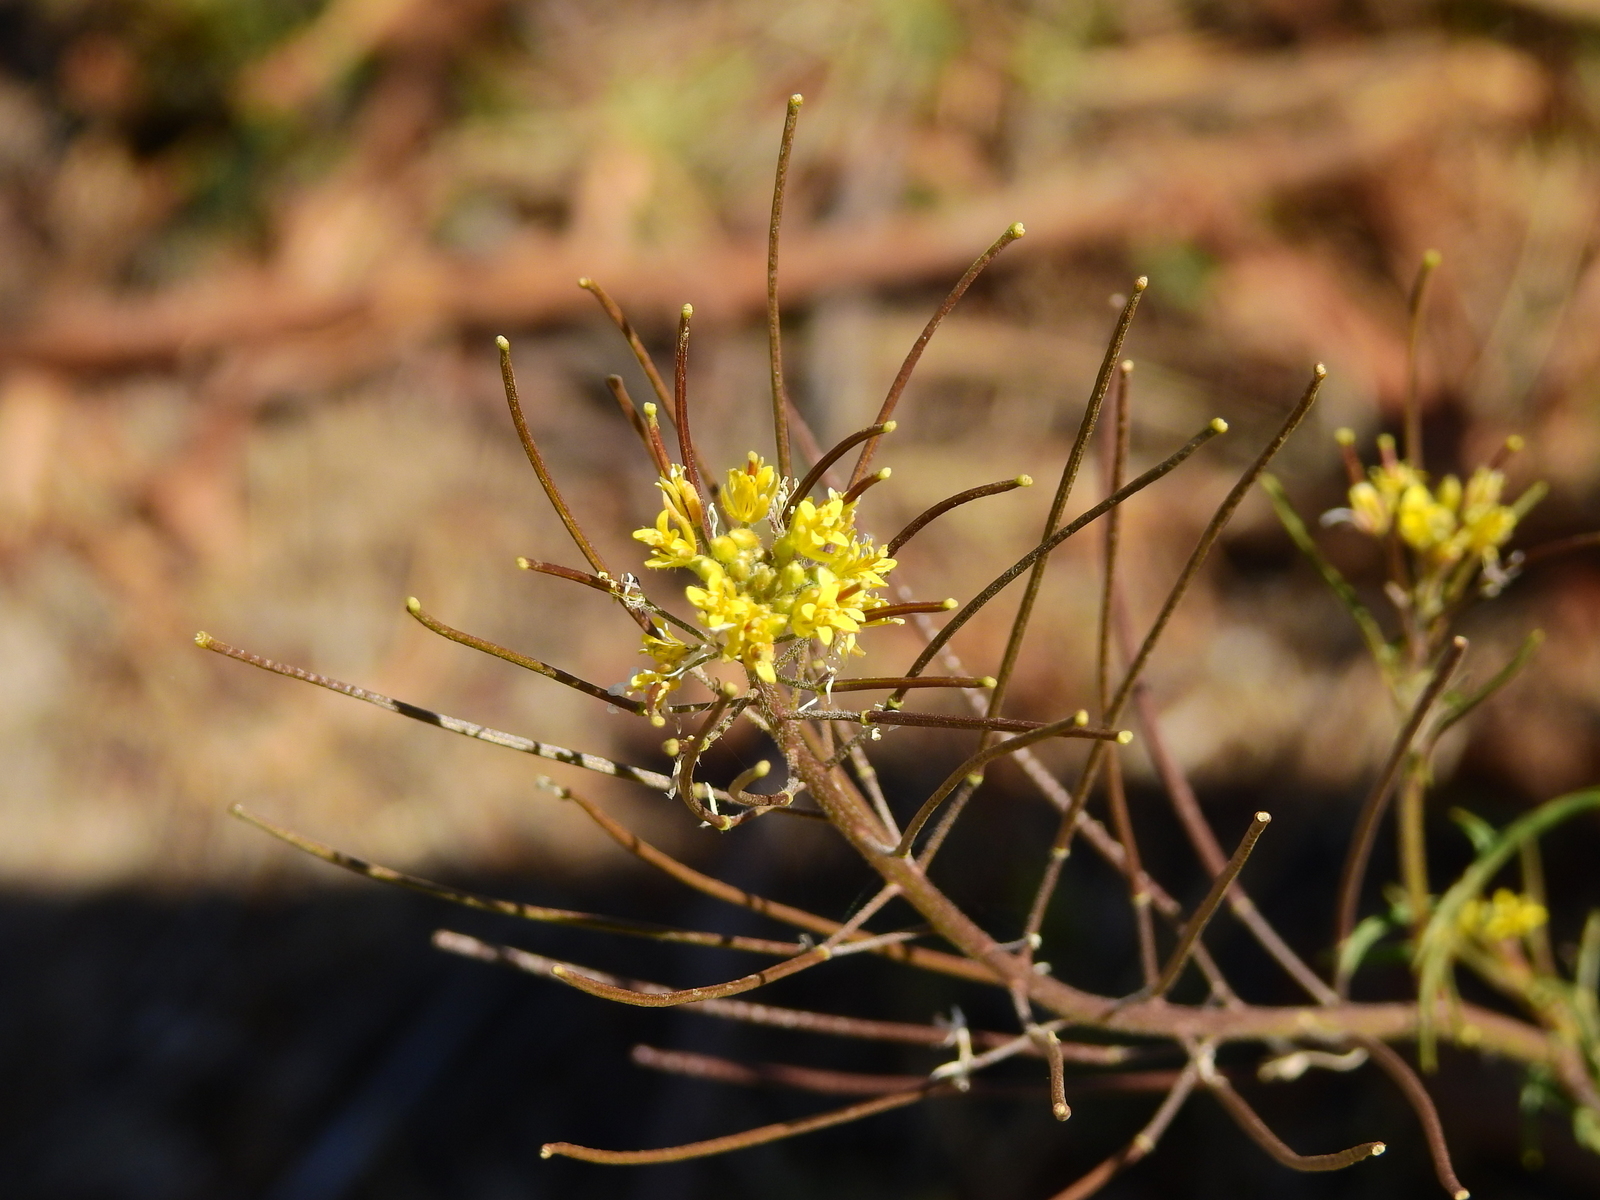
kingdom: Plantae
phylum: Tracheophyta
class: Magnoliopsida
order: Brassicales
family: Brassicaceae
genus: Sisymbrium
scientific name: Sisymbrium irio
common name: London rocket
